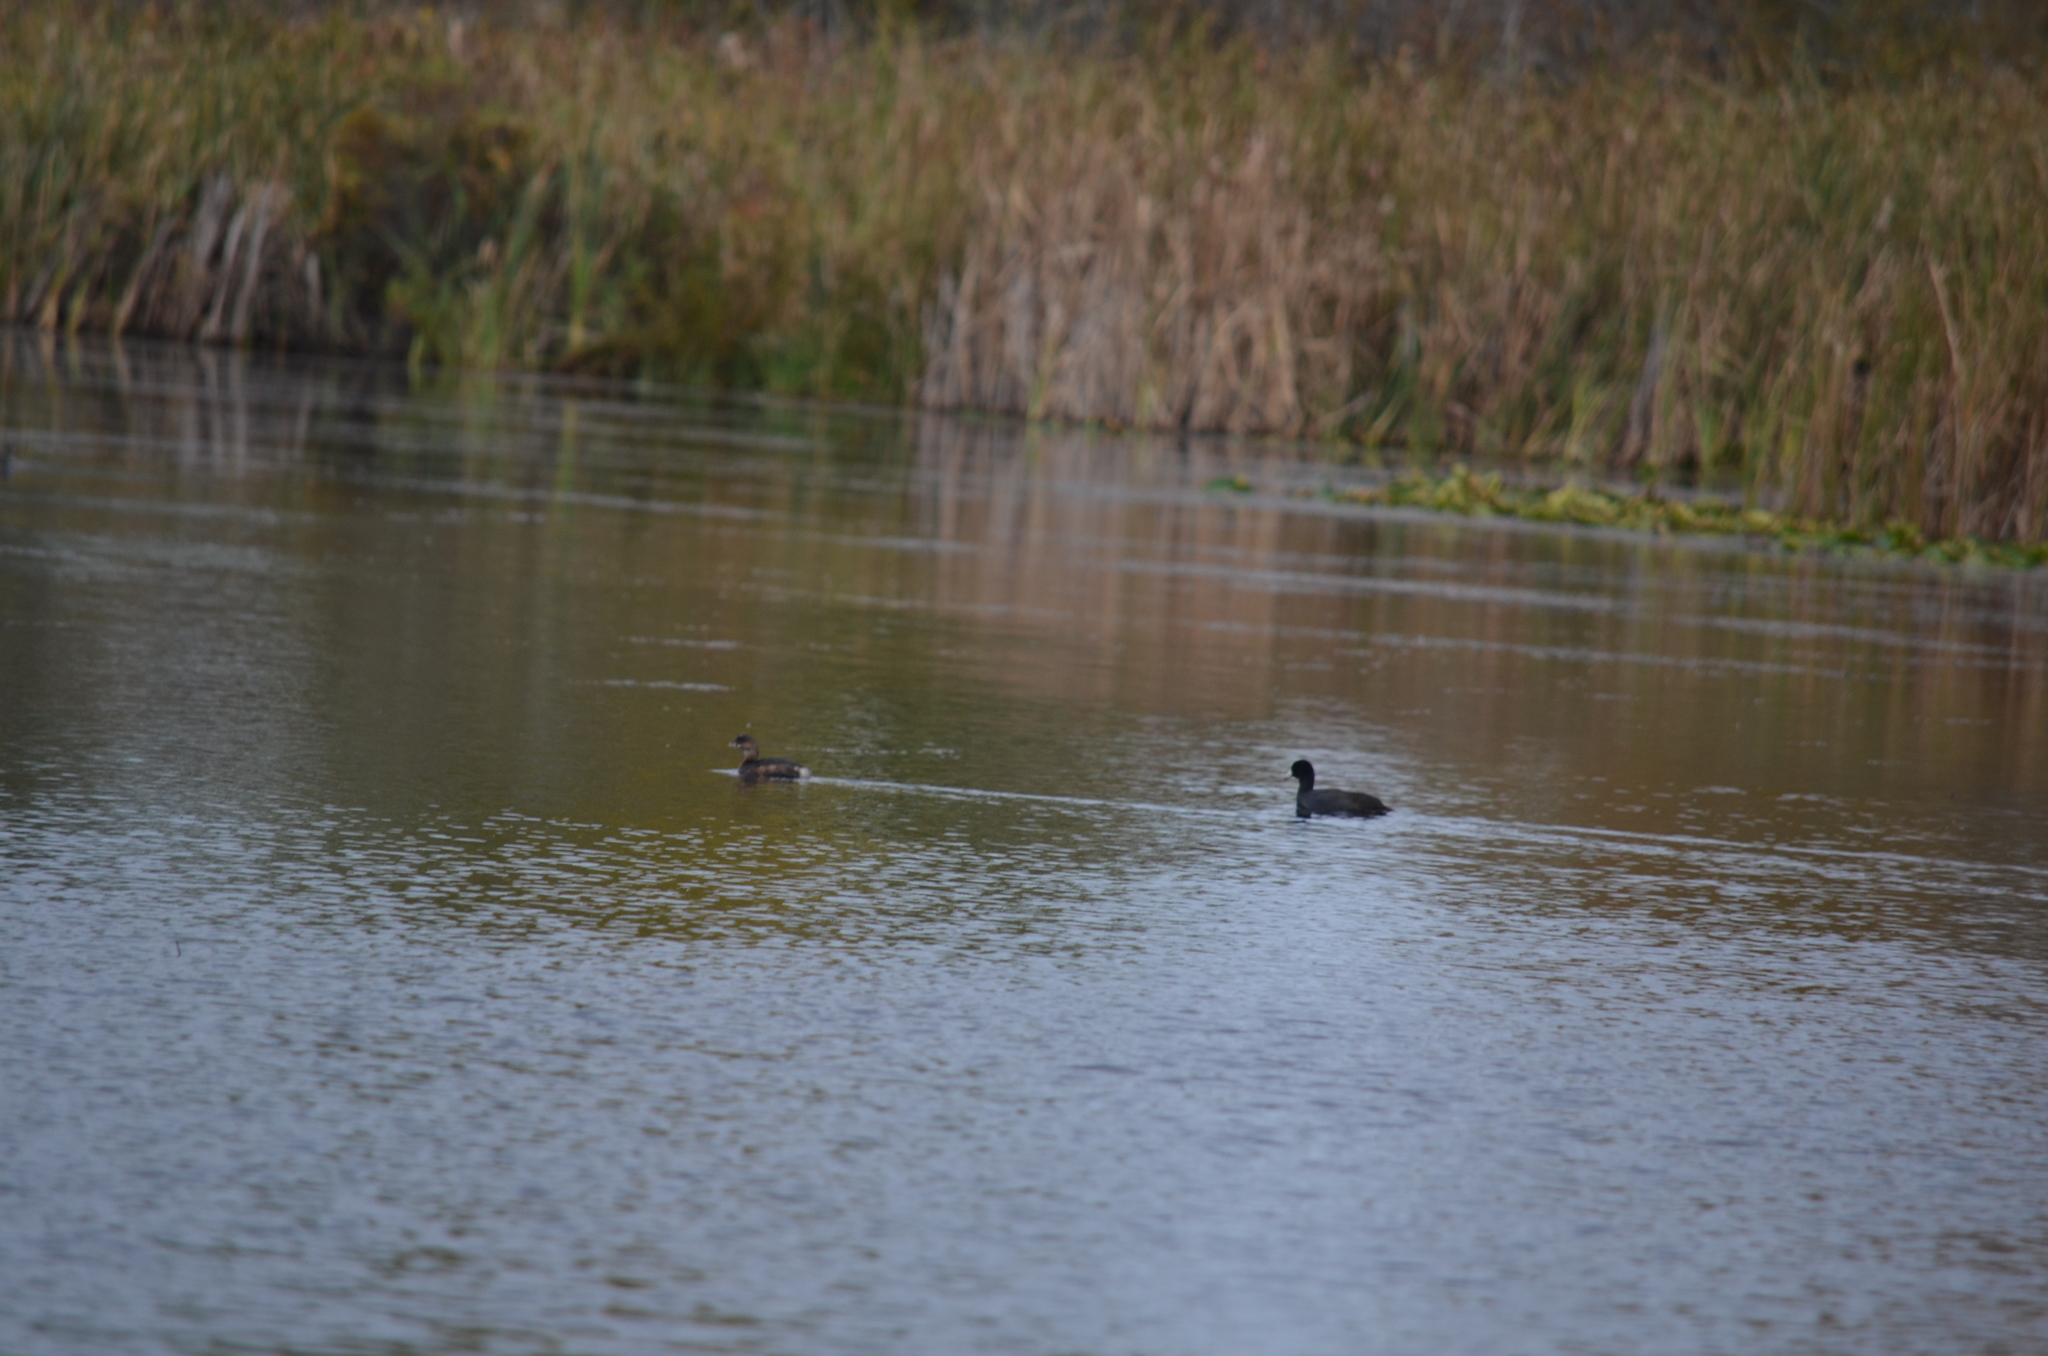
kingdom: Animalia
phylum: Chordata
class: Aves
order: Gruiformes
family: Rallidae
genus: Fulica
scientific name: Fulica americana
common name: American coot
